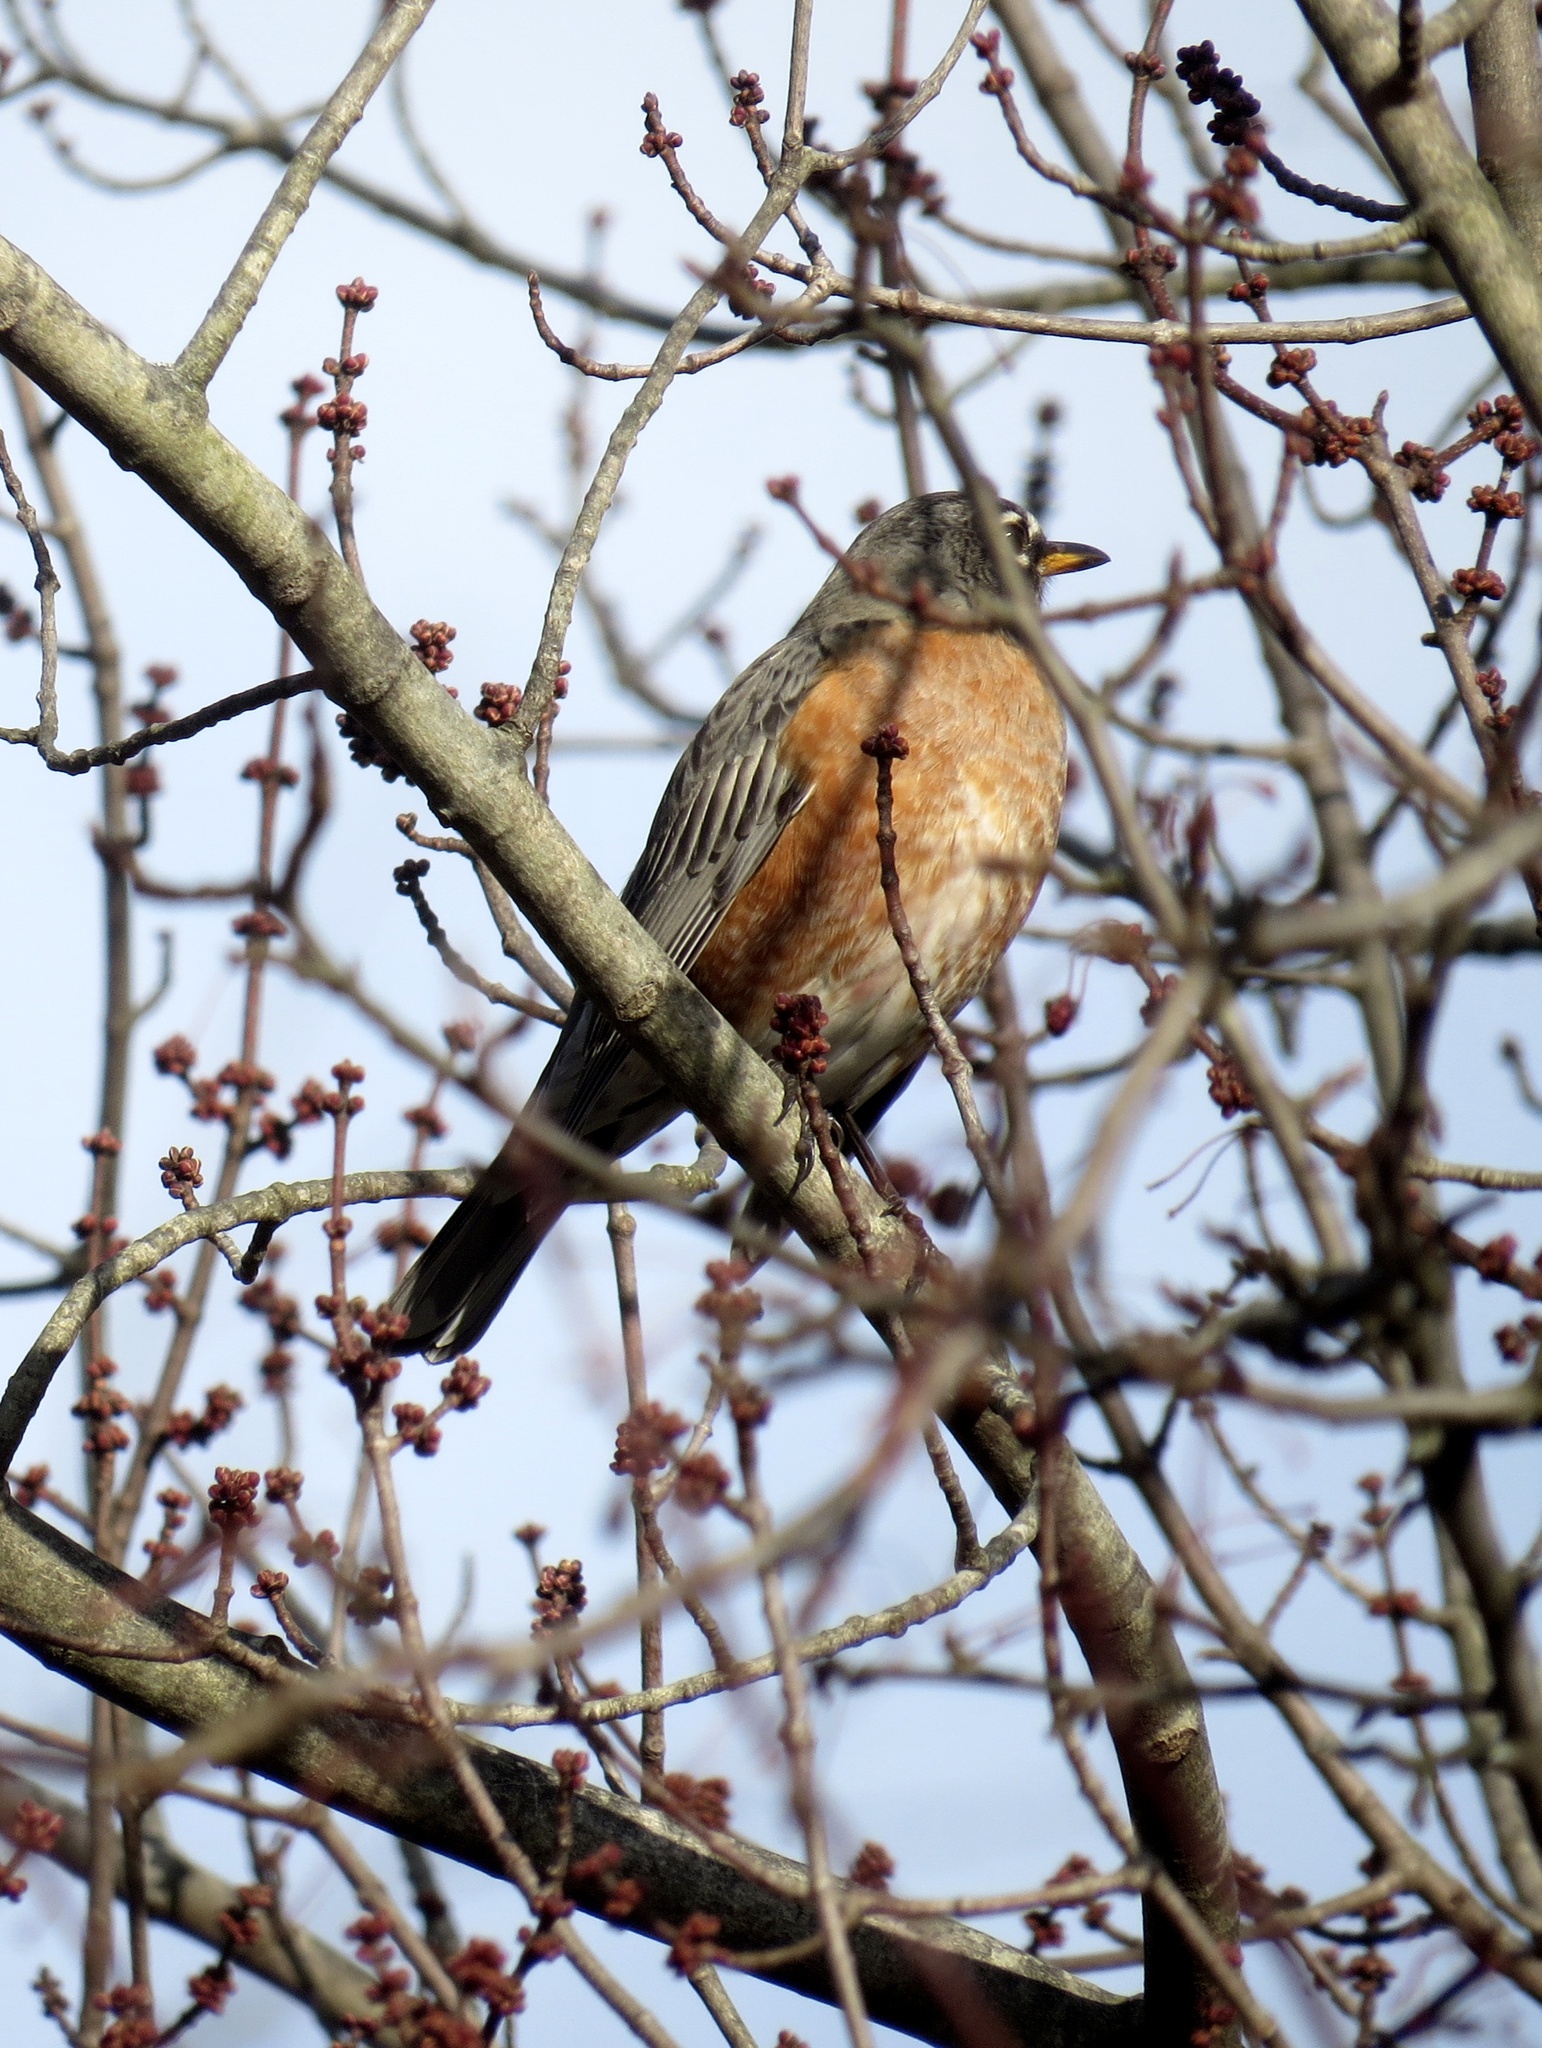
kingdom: Animalia
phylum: Chordata
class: Aves
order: Passeriformes
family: Turdidae
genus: Turdus
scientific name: Turdus migratorius
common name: American robin
